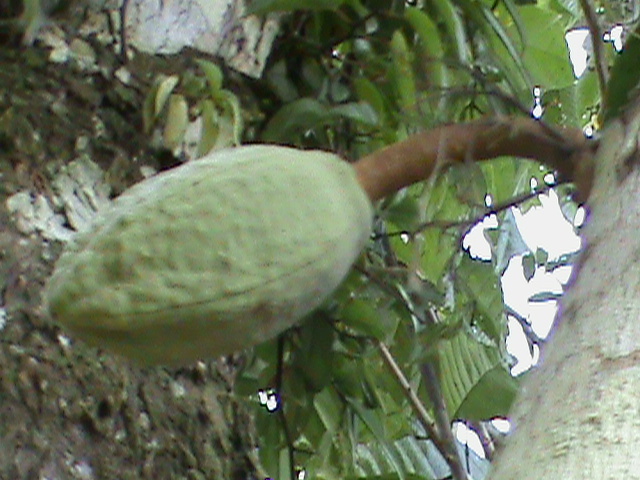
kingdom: Plantae
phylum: Tracheophyta
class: Magnoliopsida
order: Malvales
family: Malvaceae
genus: Theobroma
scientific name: Theobroma speciosum
